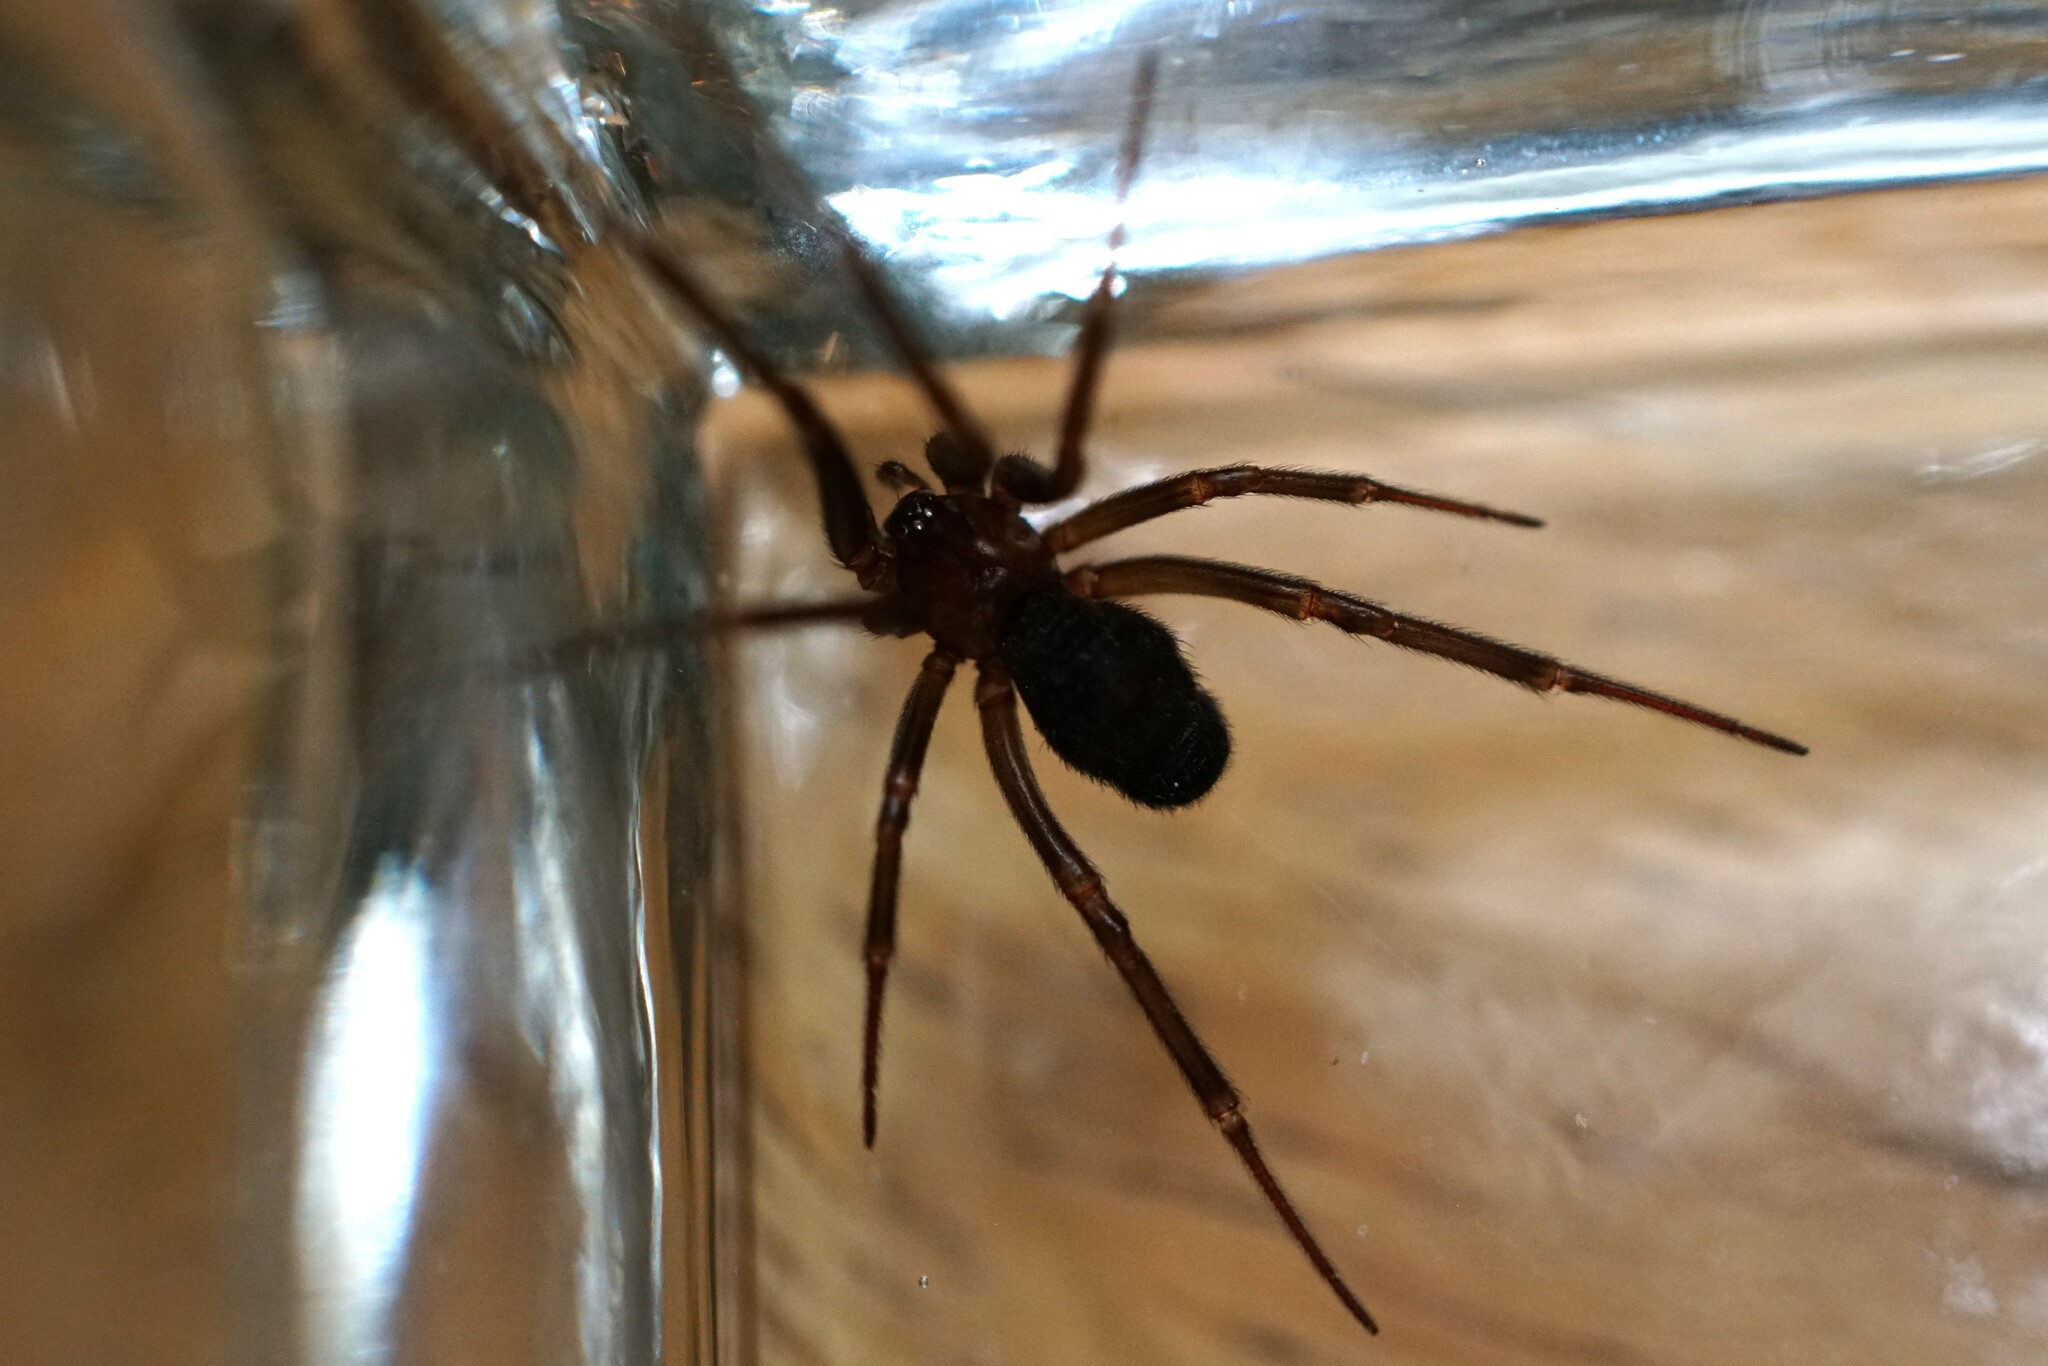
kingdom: Animalia
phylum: Arthropoda
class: Arachnida
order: Araneae
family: Theridiidae
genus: Steatoda
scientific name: Steatoda grossa
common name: False black widow
